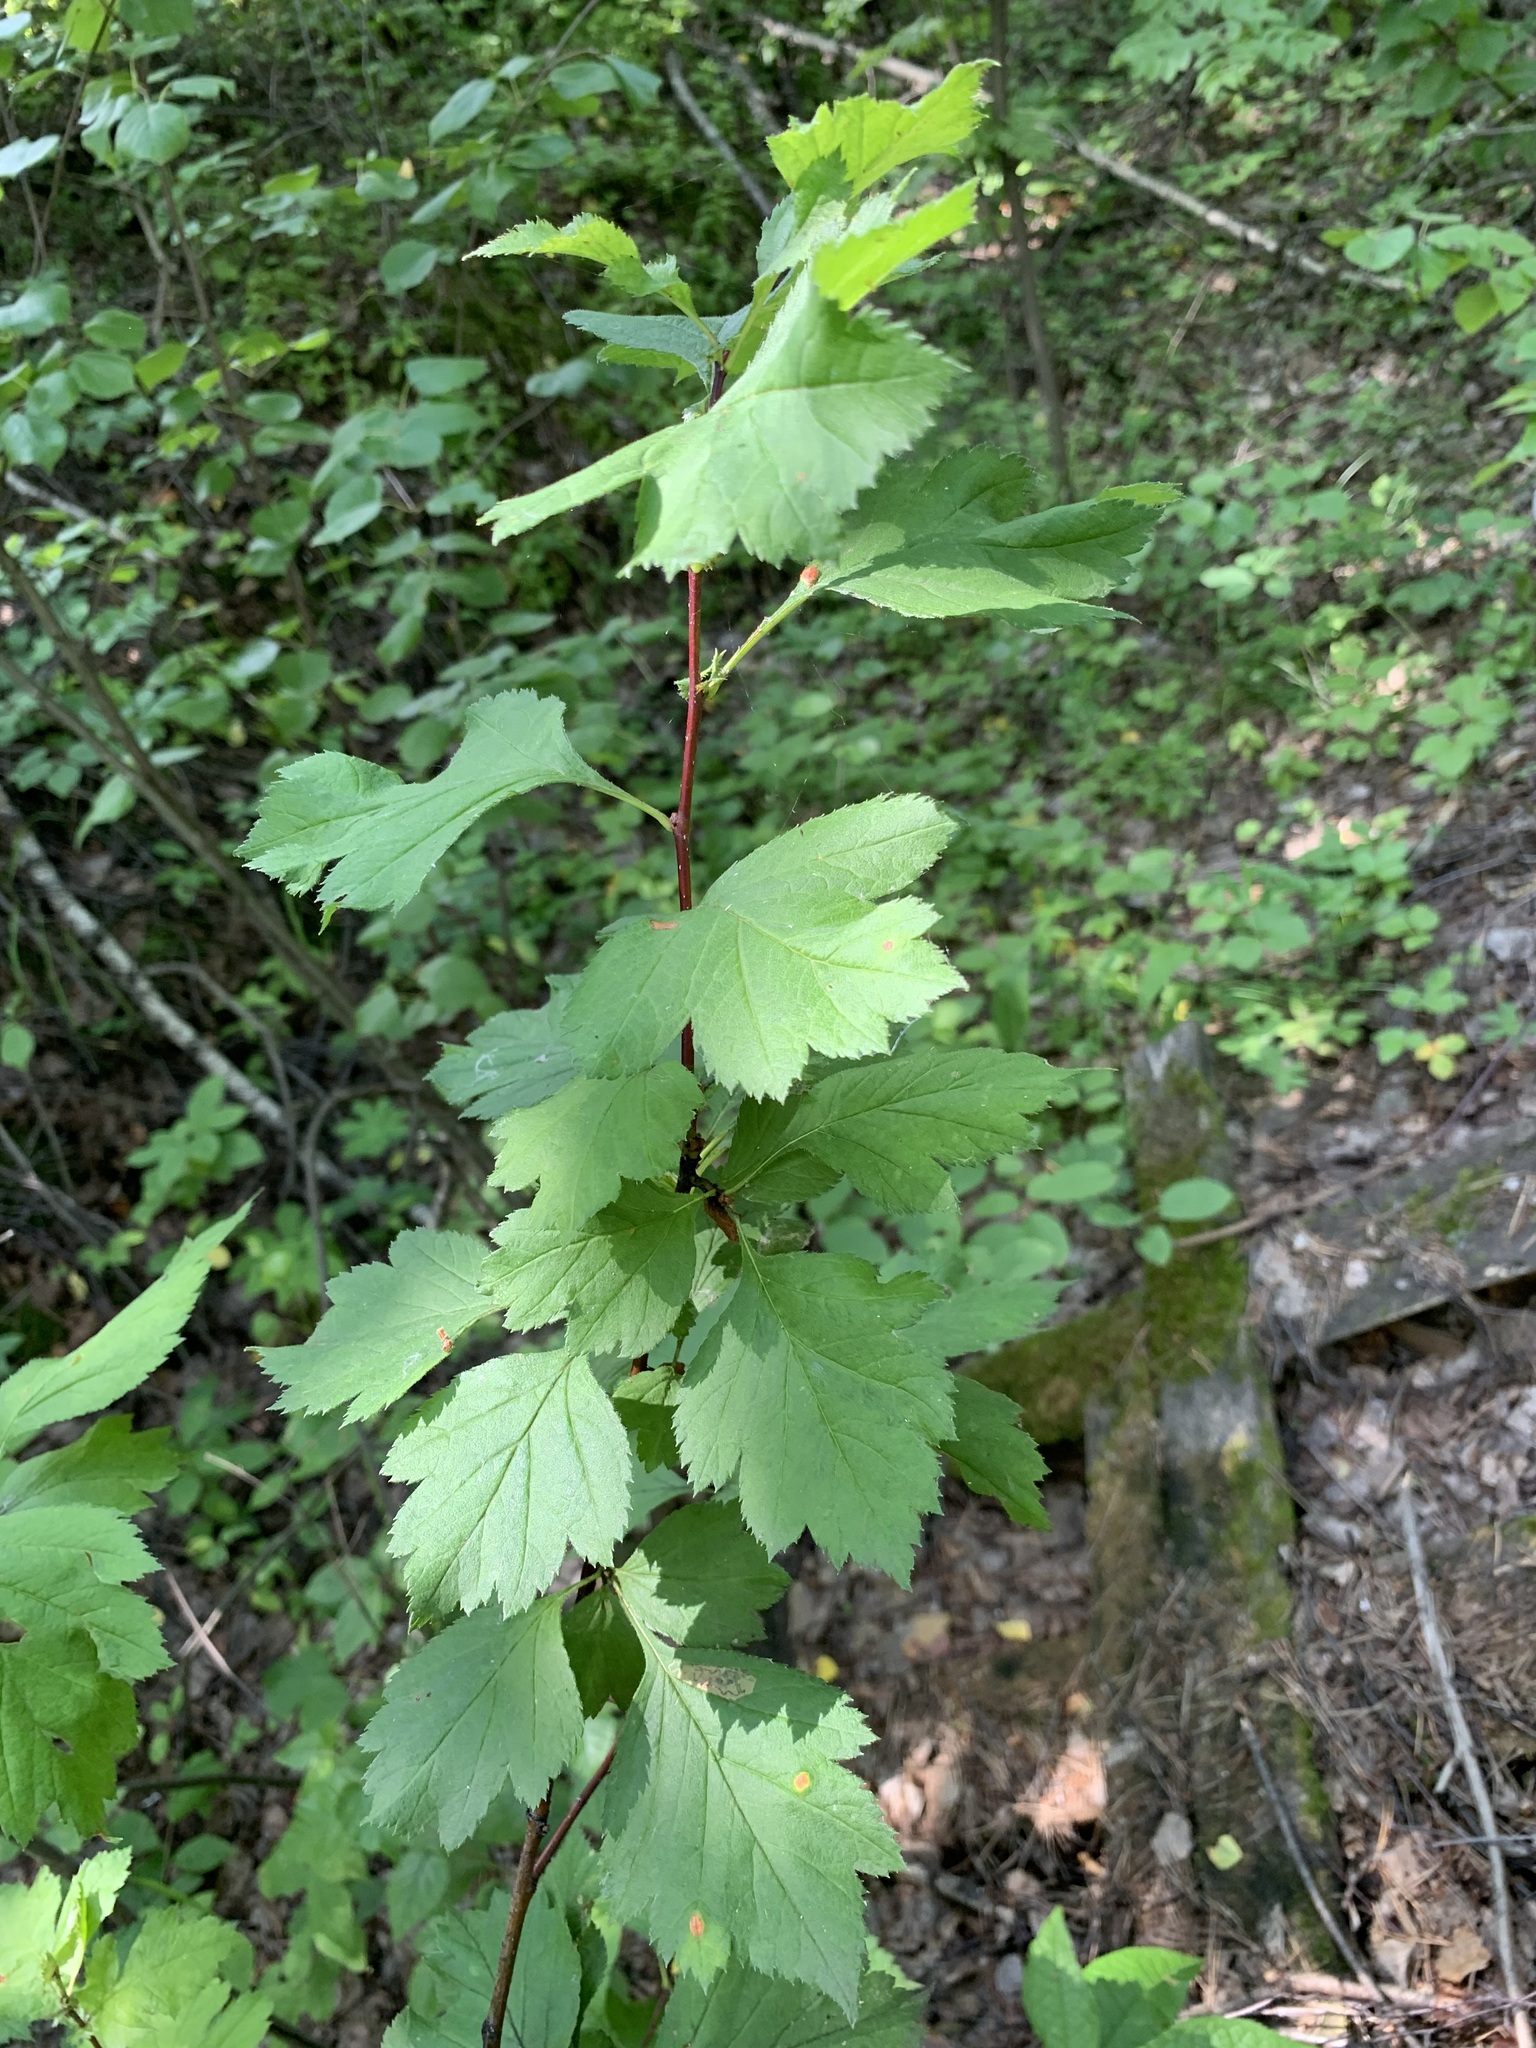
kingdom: Plantae
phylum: Tracheophyta
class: Magnoliopsida
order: Rosales
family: Rosaceae
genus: Crataegus
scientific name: Crataegus sanguinea
